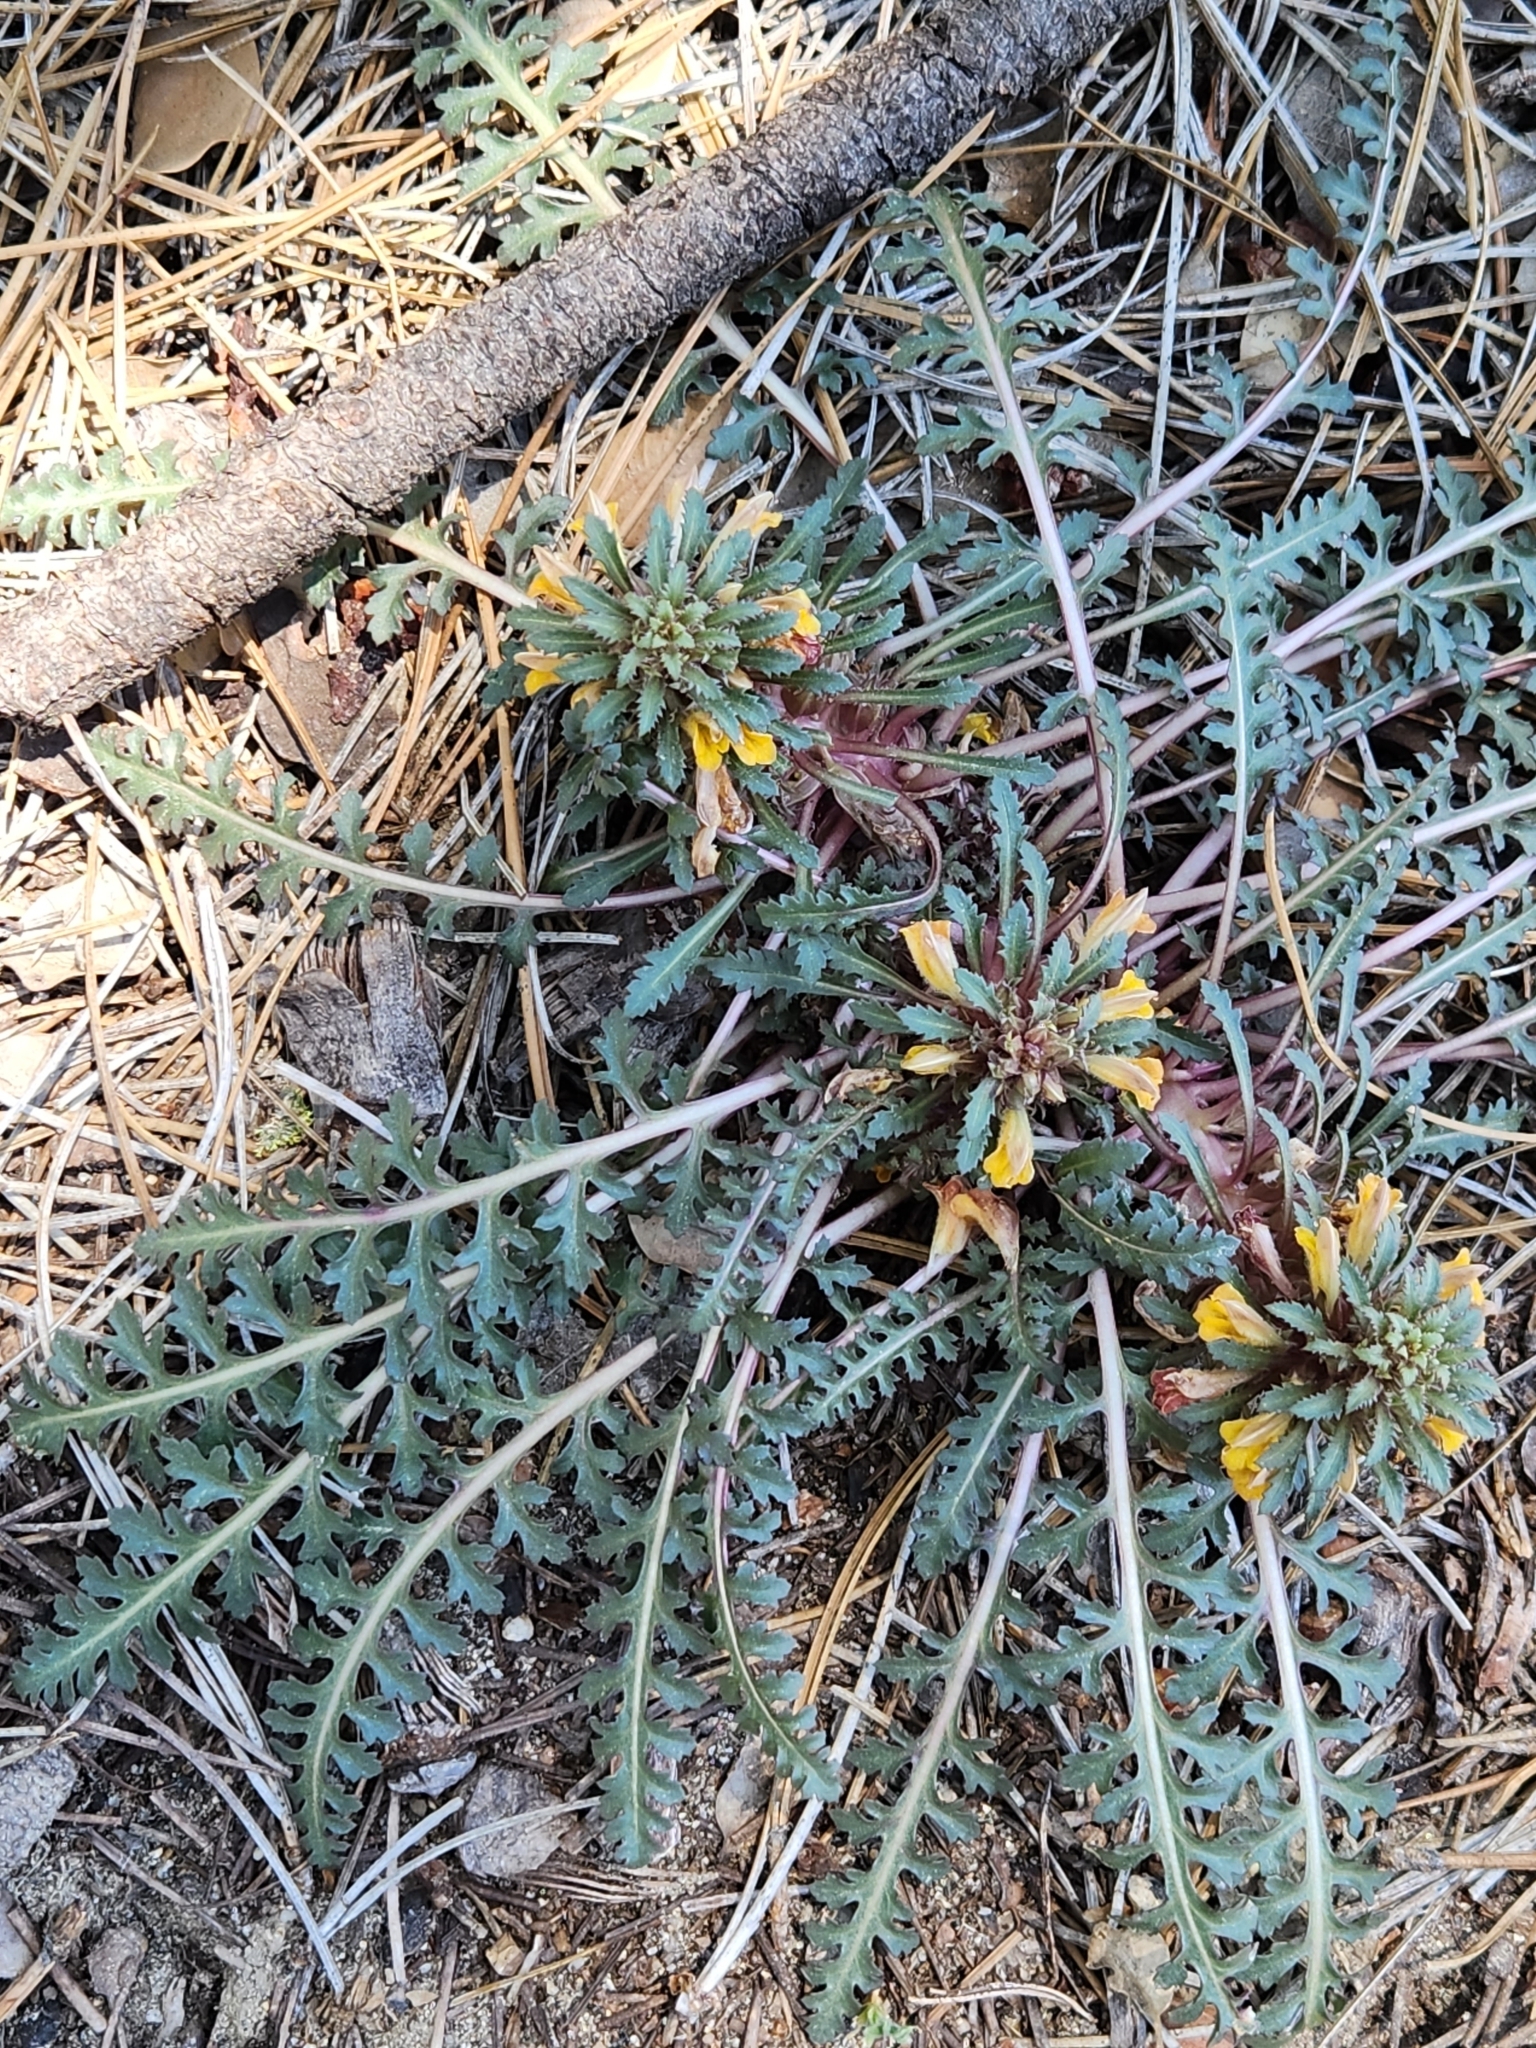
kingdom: Plantae
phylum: Tracheophyta
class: Magnoliopsida
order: Lamiales
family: Orobanchaceae
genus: Pedicularis
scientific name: Pedicularis semibarbata
